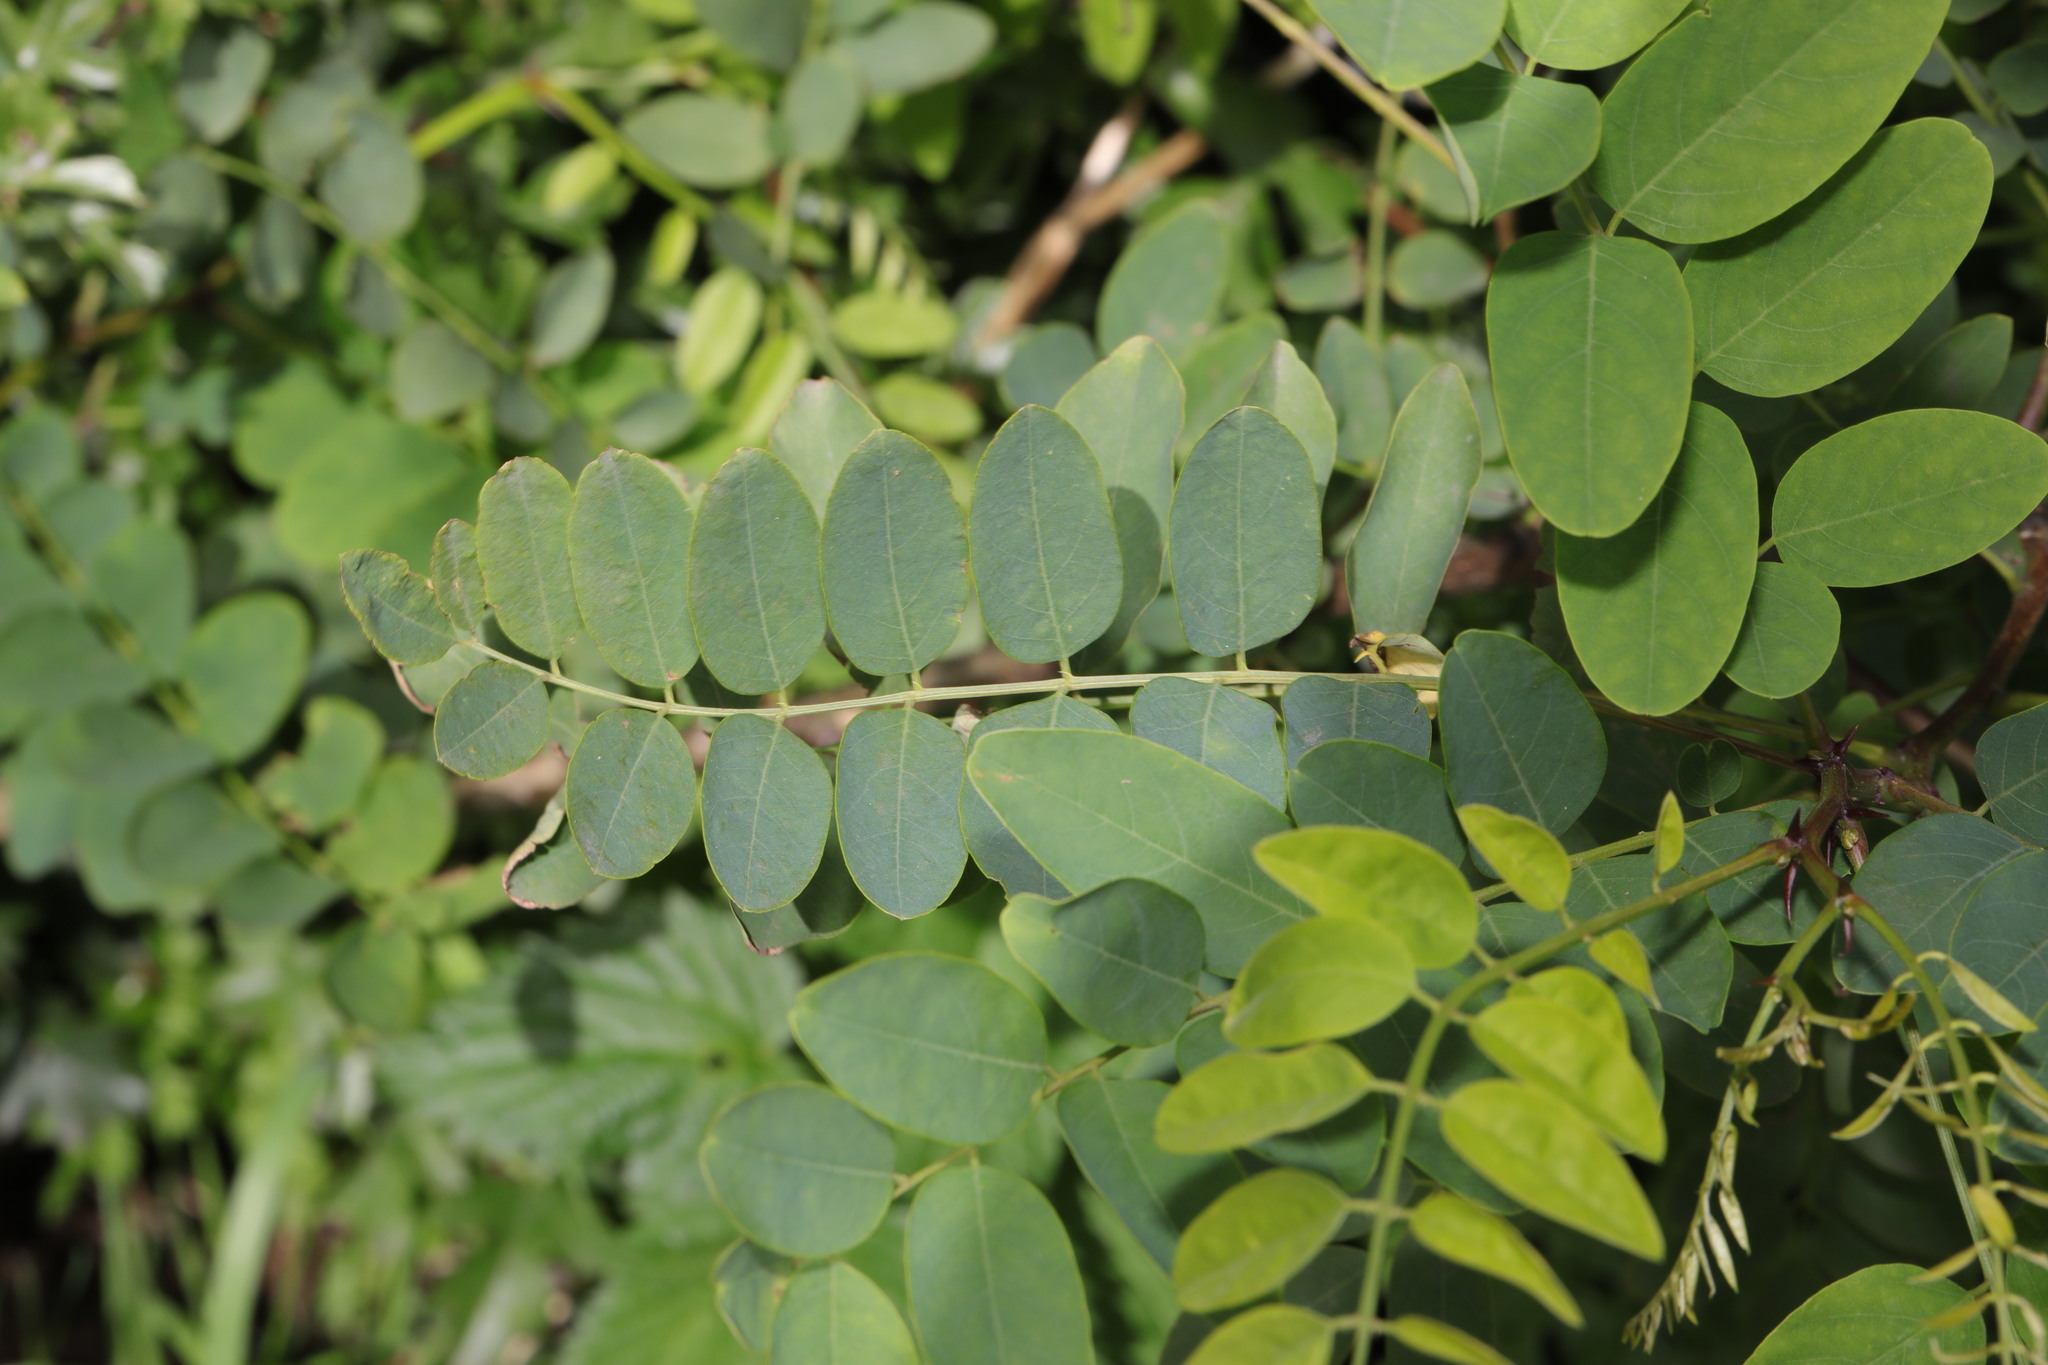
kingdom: Plantae
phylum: Tracheophyta
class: Magnoliopsida
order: Fabales
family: Fabaceae
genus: Robinia
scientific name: Robinia pseudoacacia
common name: Black locust
